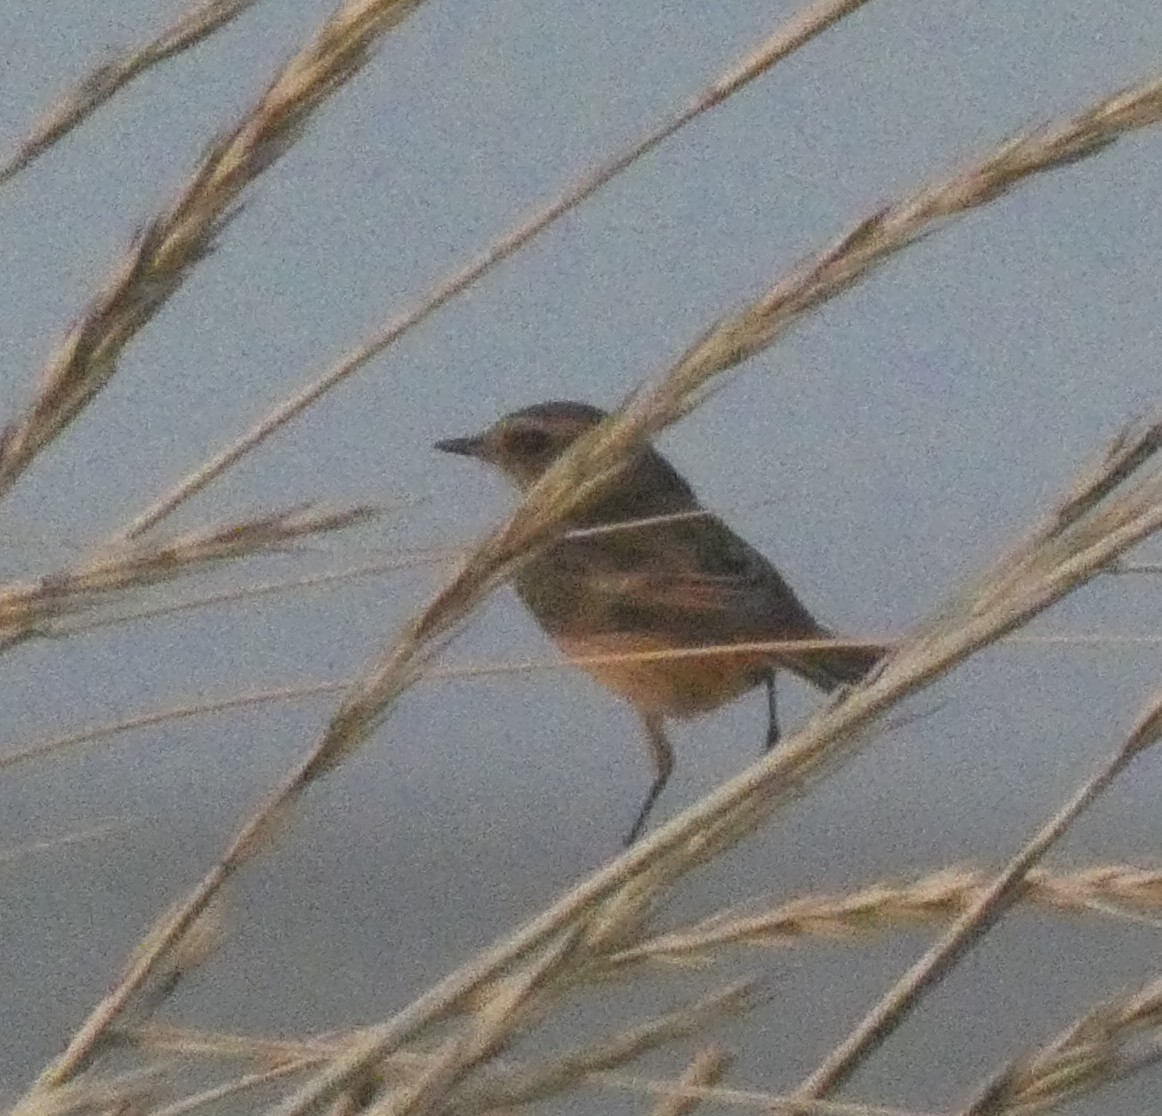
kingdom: Animalia
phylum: Chordata
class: Aves
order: Passeriformes
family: Muscicapidae
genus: Saxicola
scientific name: Saxicola rubicola
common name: European stonechat
